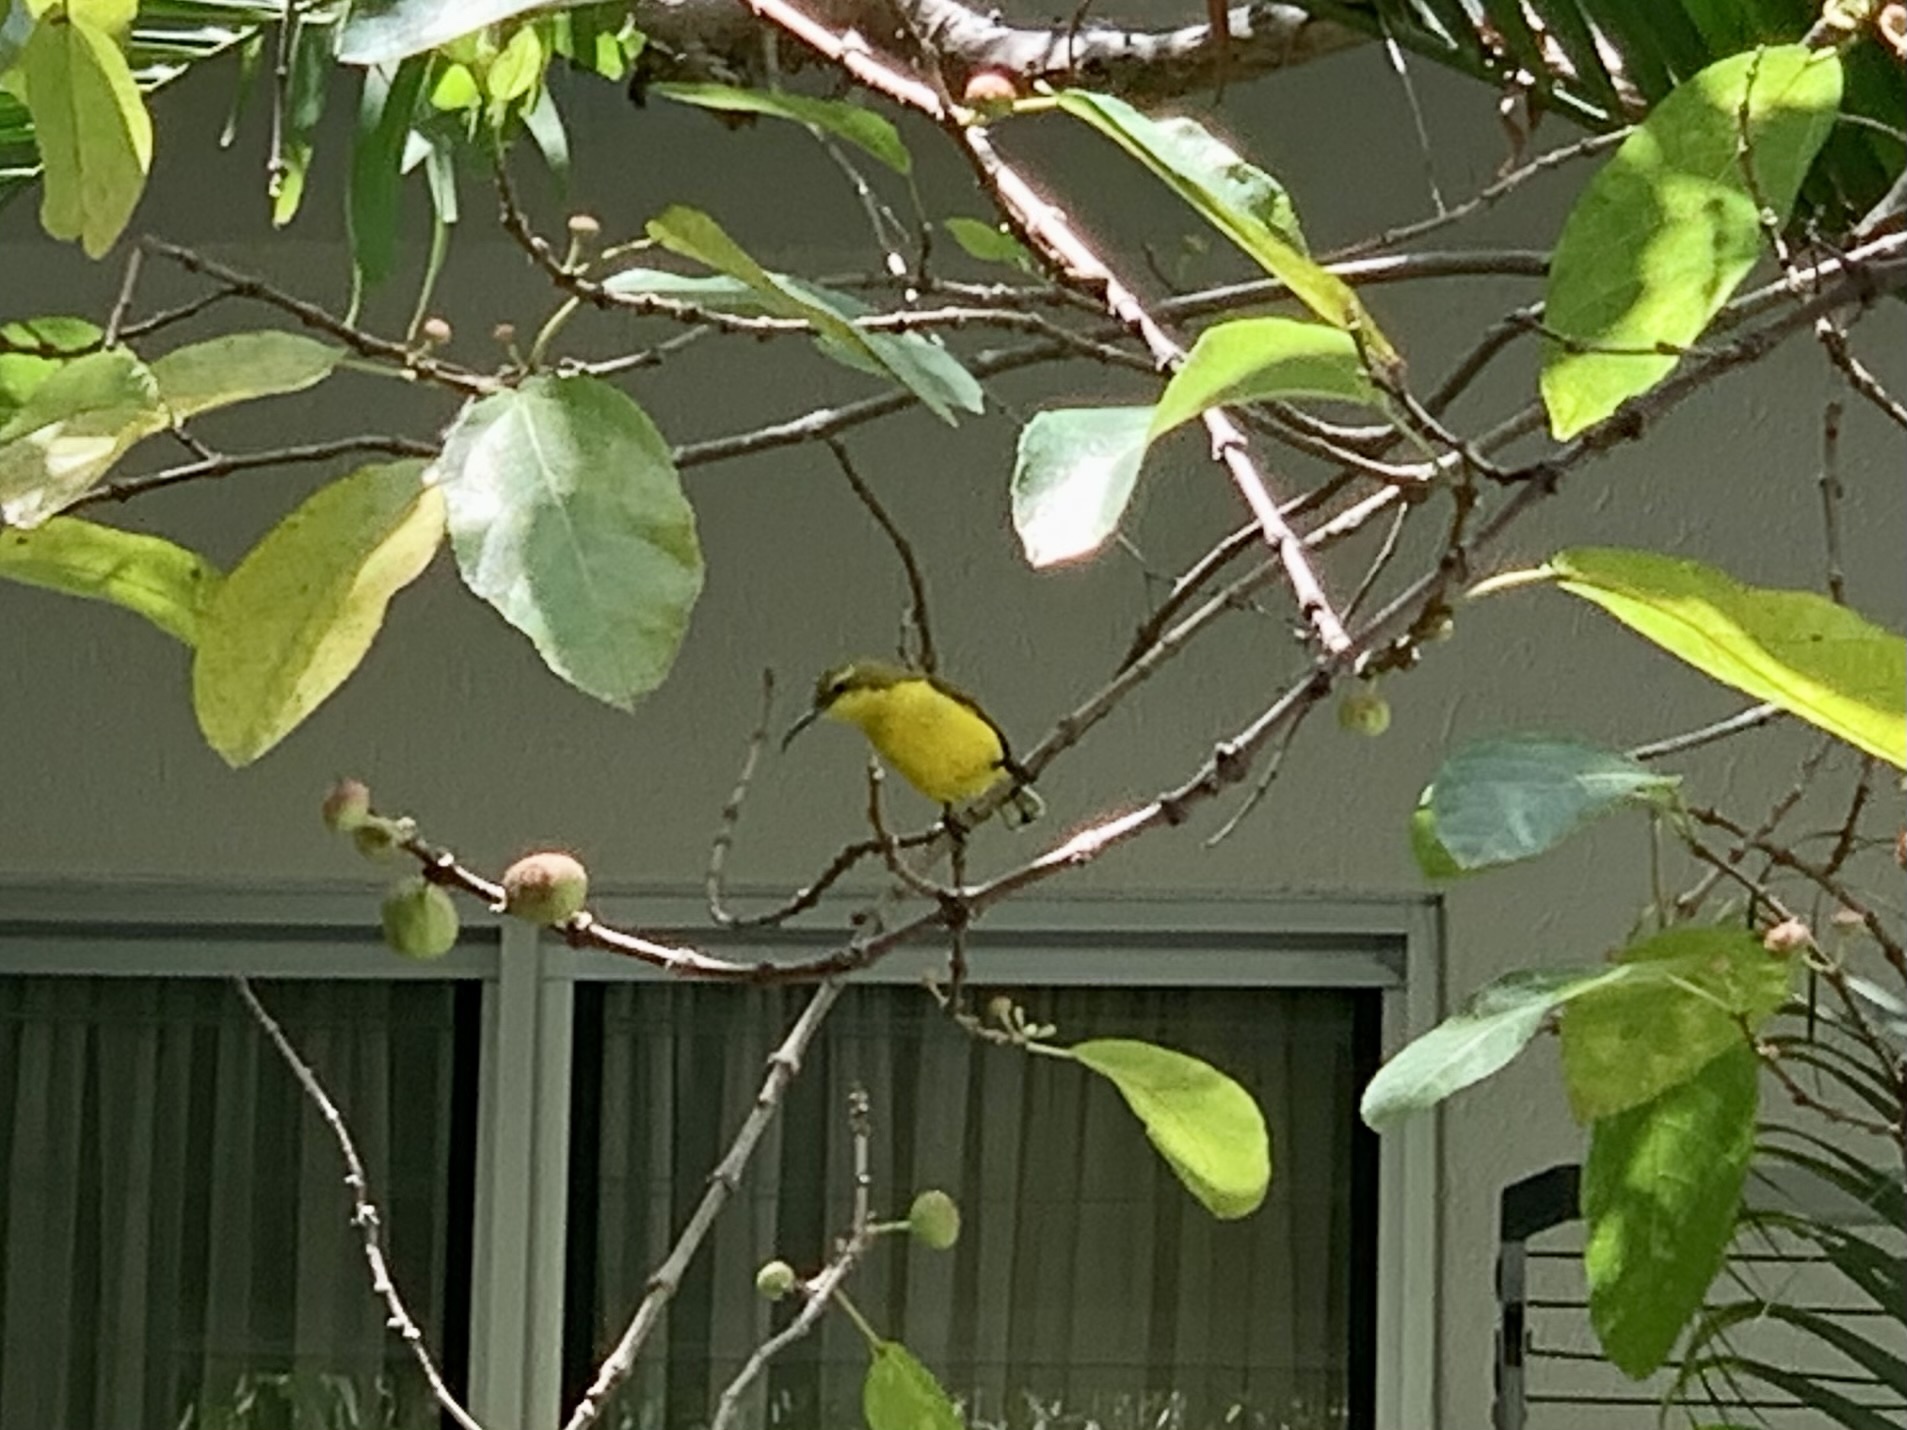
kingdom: Animalia
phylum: Chordata
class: Aves
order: Passeriformes
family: Nectariniidae
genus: Cinnyris
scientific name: Cinnyris
